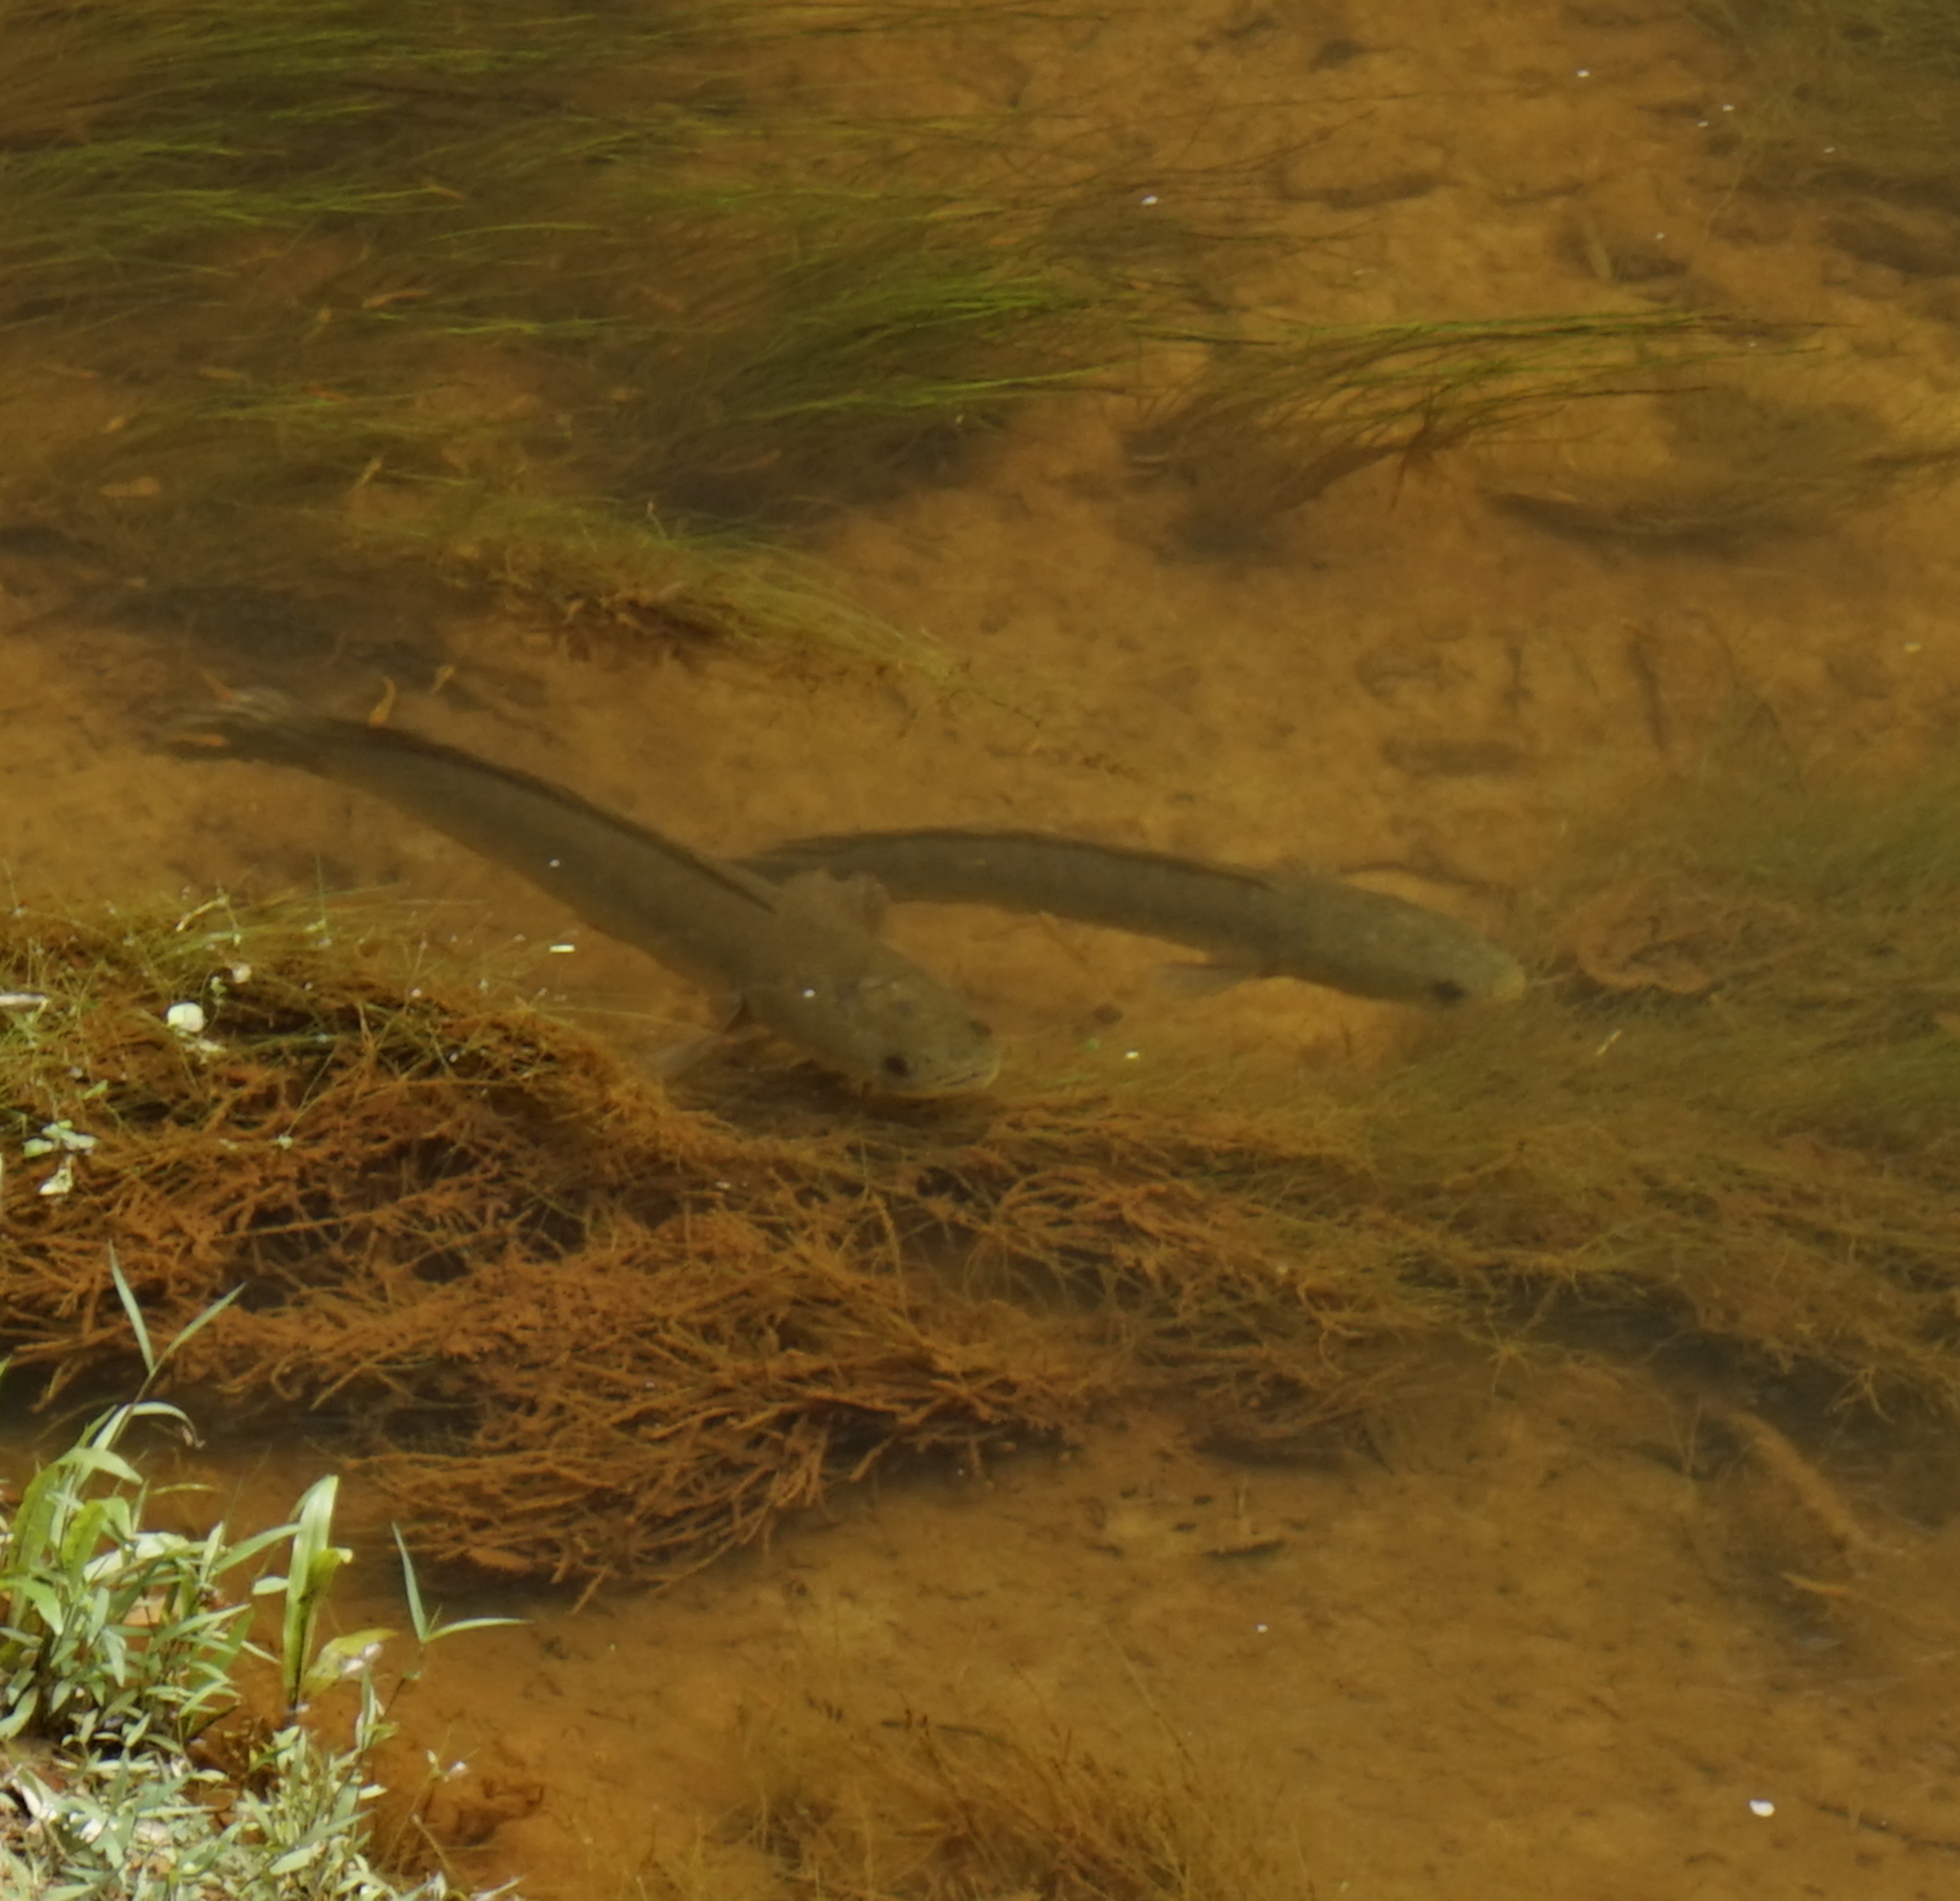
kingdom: Animalia
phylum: Chordata
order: Perciformes
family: Channidae
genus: Channa
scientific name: Channa striata
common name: Striped snakehead
